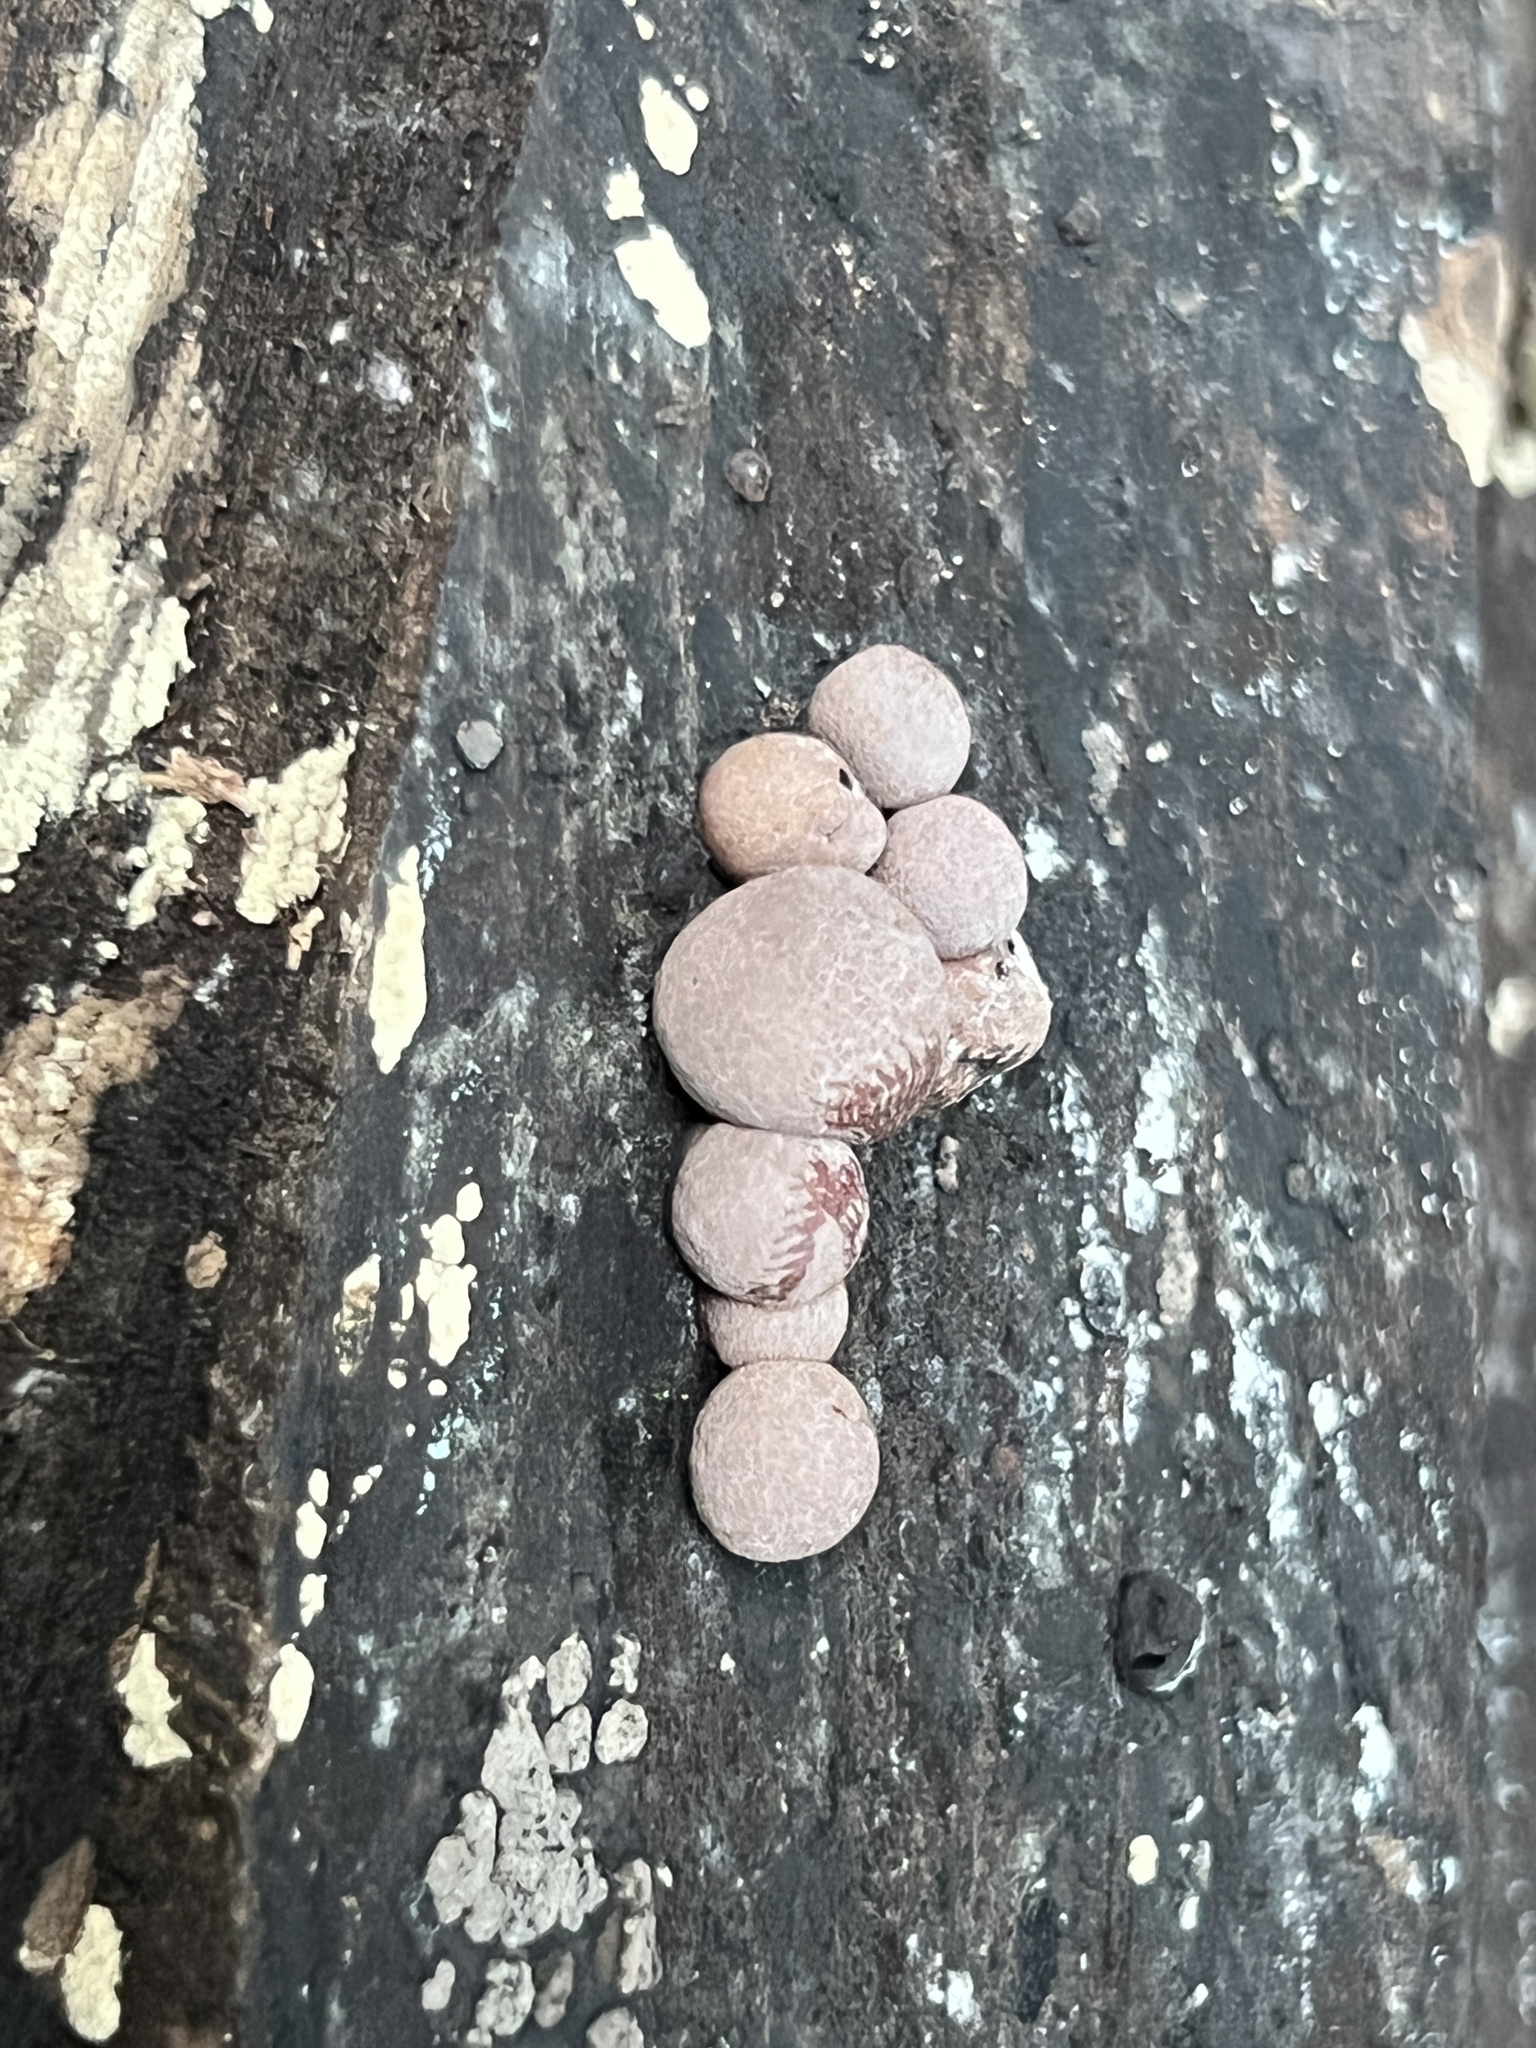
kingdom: Fungi
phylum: Ascomycota
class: Sordariomycetes
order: Xylariales
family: Hypoxylaceae
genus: Daldinia
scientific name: Daldinia childiae
